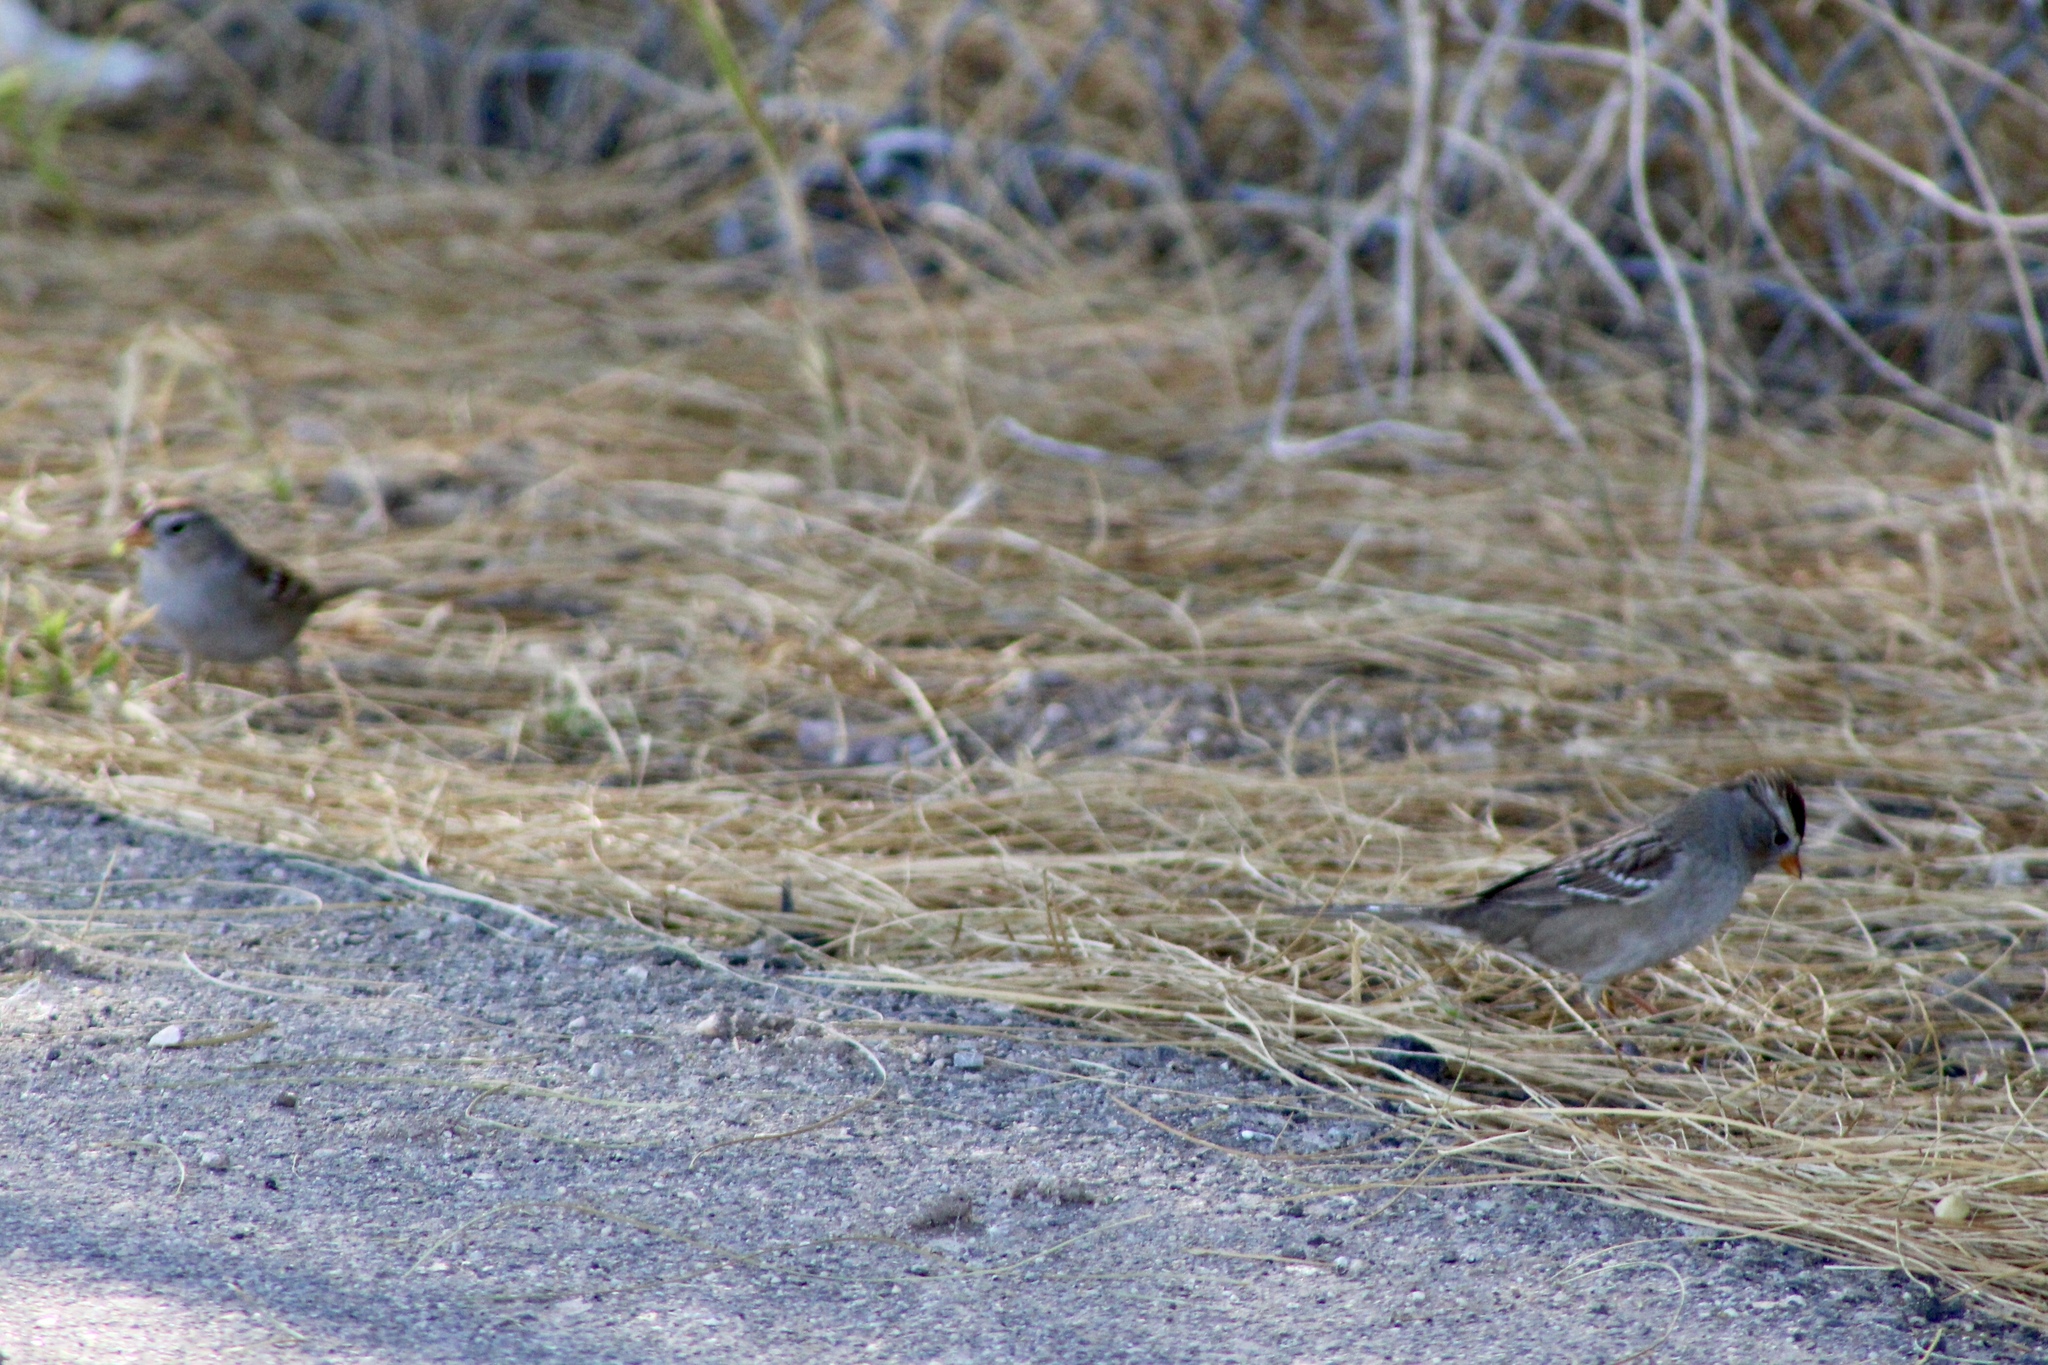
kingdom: Animalia
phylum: Chordata
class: Aves
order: Passeriformes
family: Passerellidae
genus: Zonotrichia
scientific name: Zonotrichia leucophrys
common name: White-crowned sparrow
